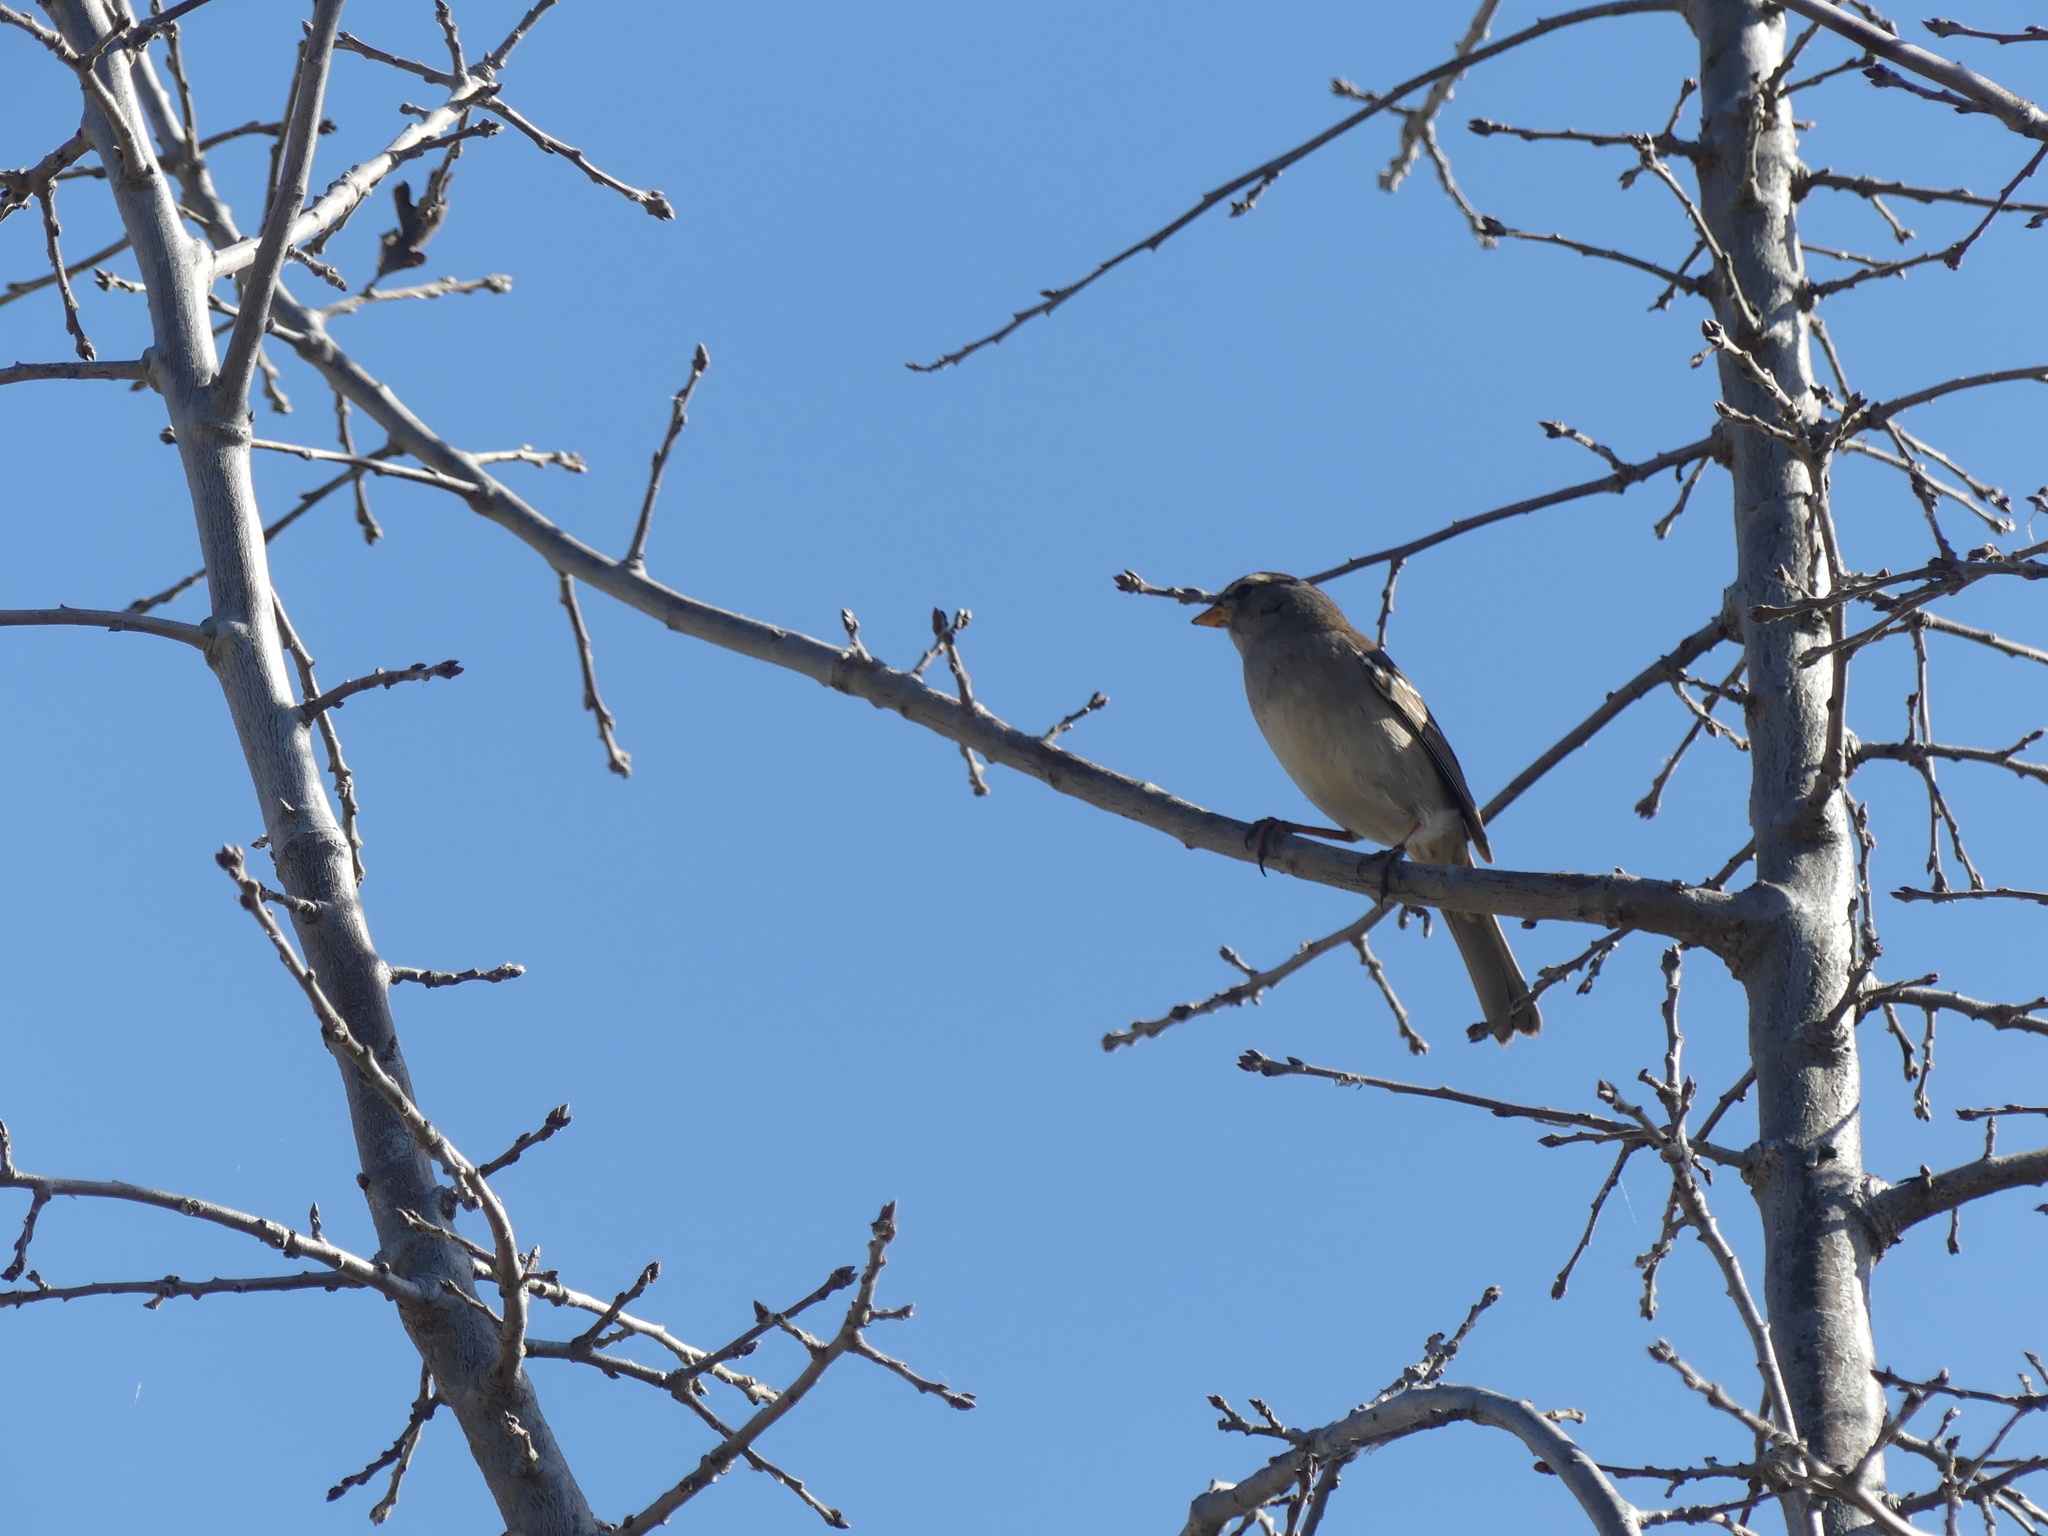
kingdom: Animalia
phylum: Chordata
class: Aves
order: Passeriformes
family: Passerellidae
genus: Zonotrichia
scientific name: Zonotrichia leucophrys
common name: White-crowned sparrow
